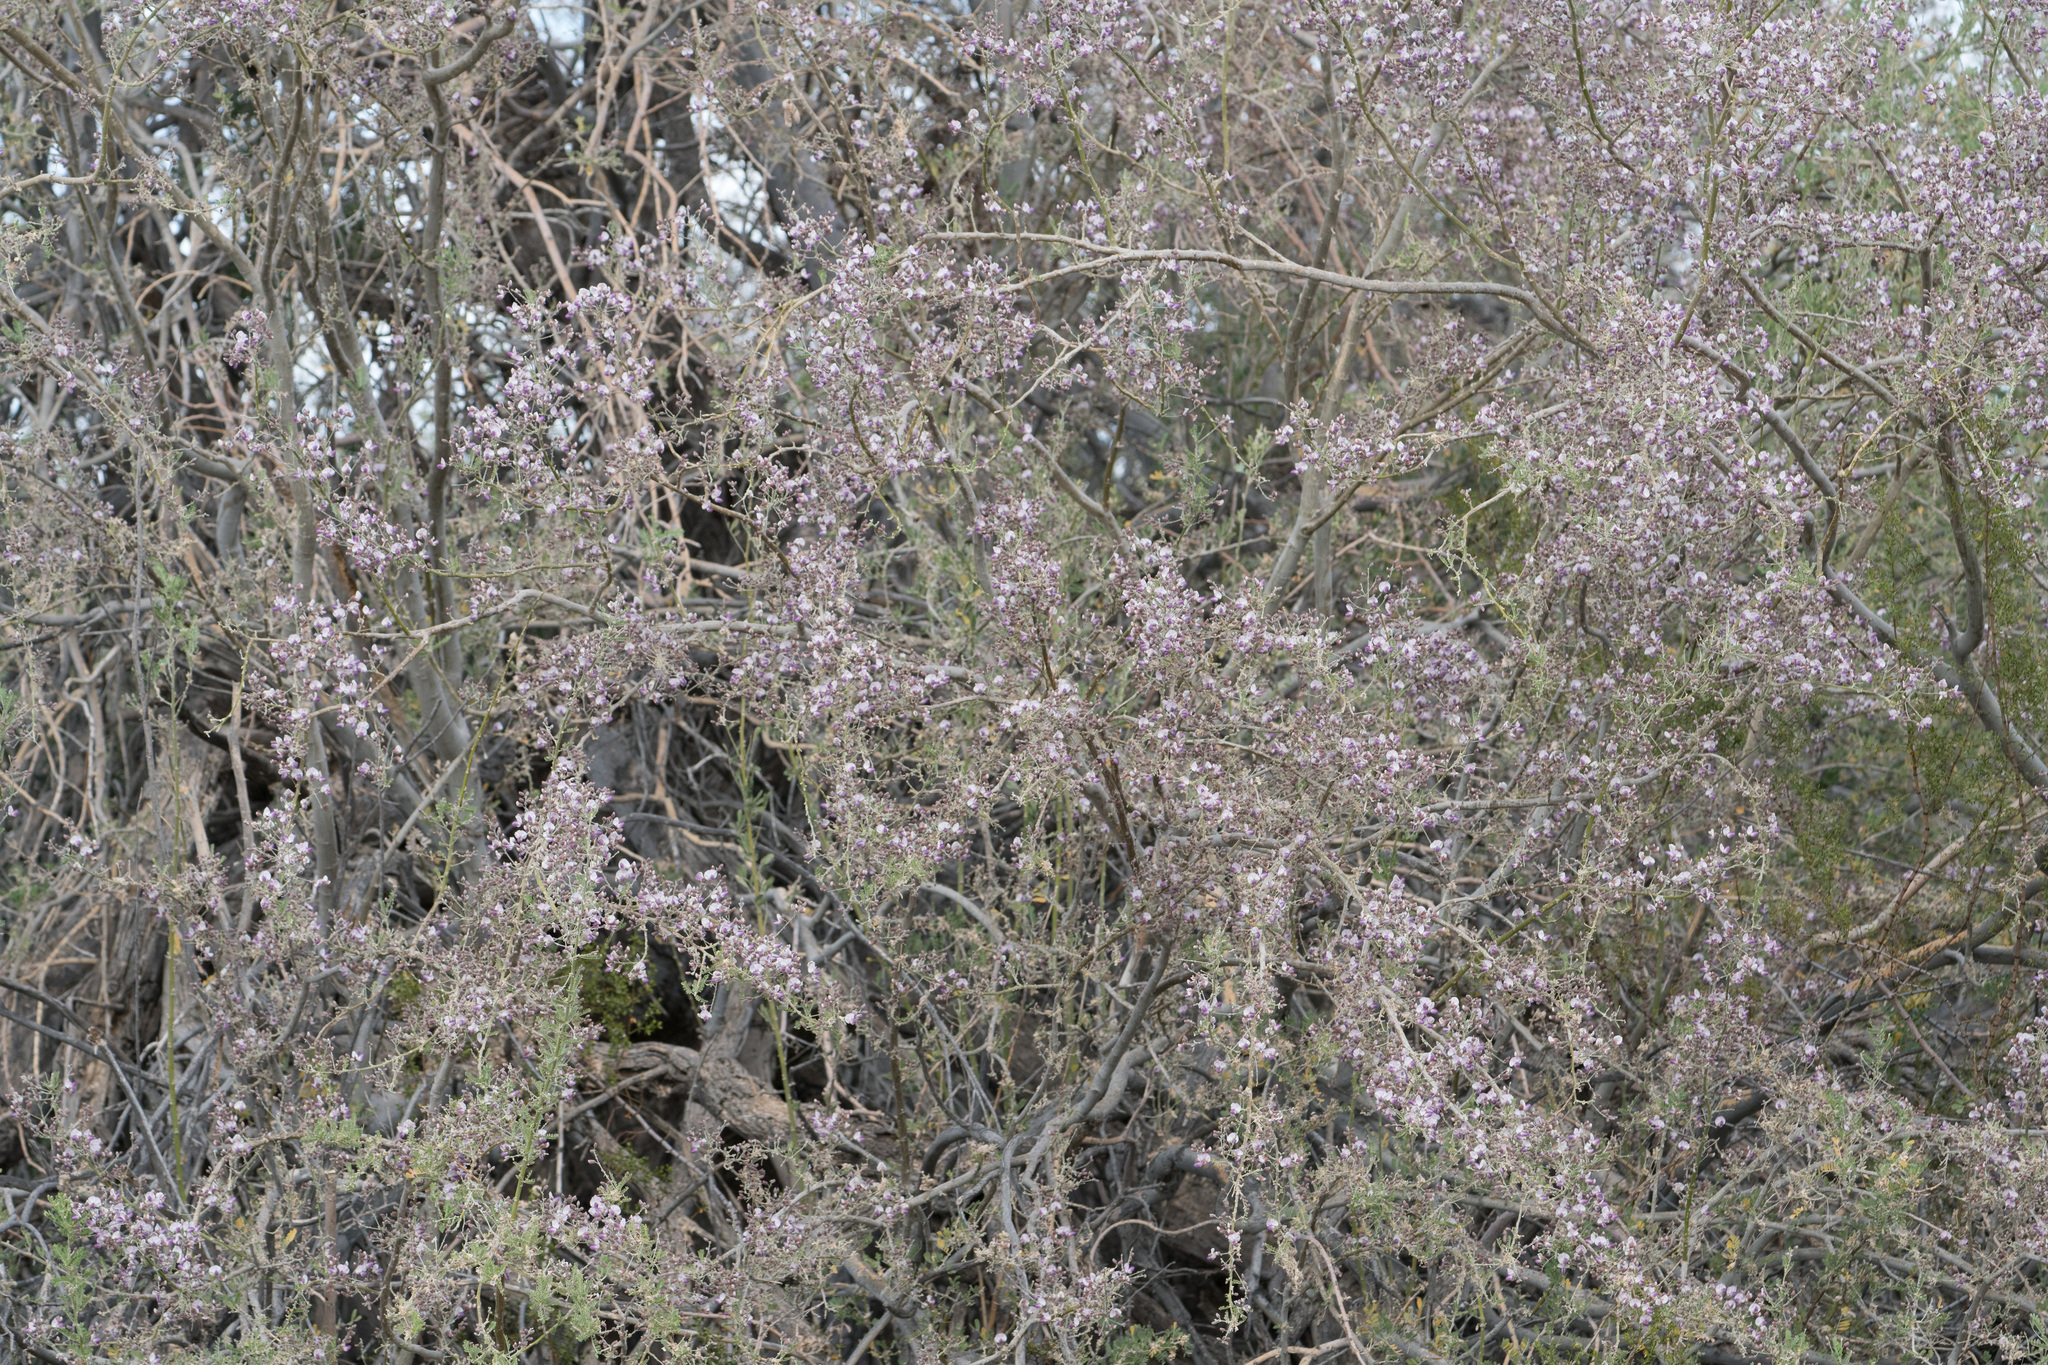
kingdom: Plantae
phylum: Tracheophyta
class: Magnoliopsida
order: Fabales
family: Fabaceae
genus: Olneya
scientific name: Olneya tesota
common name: Desert ironwood
